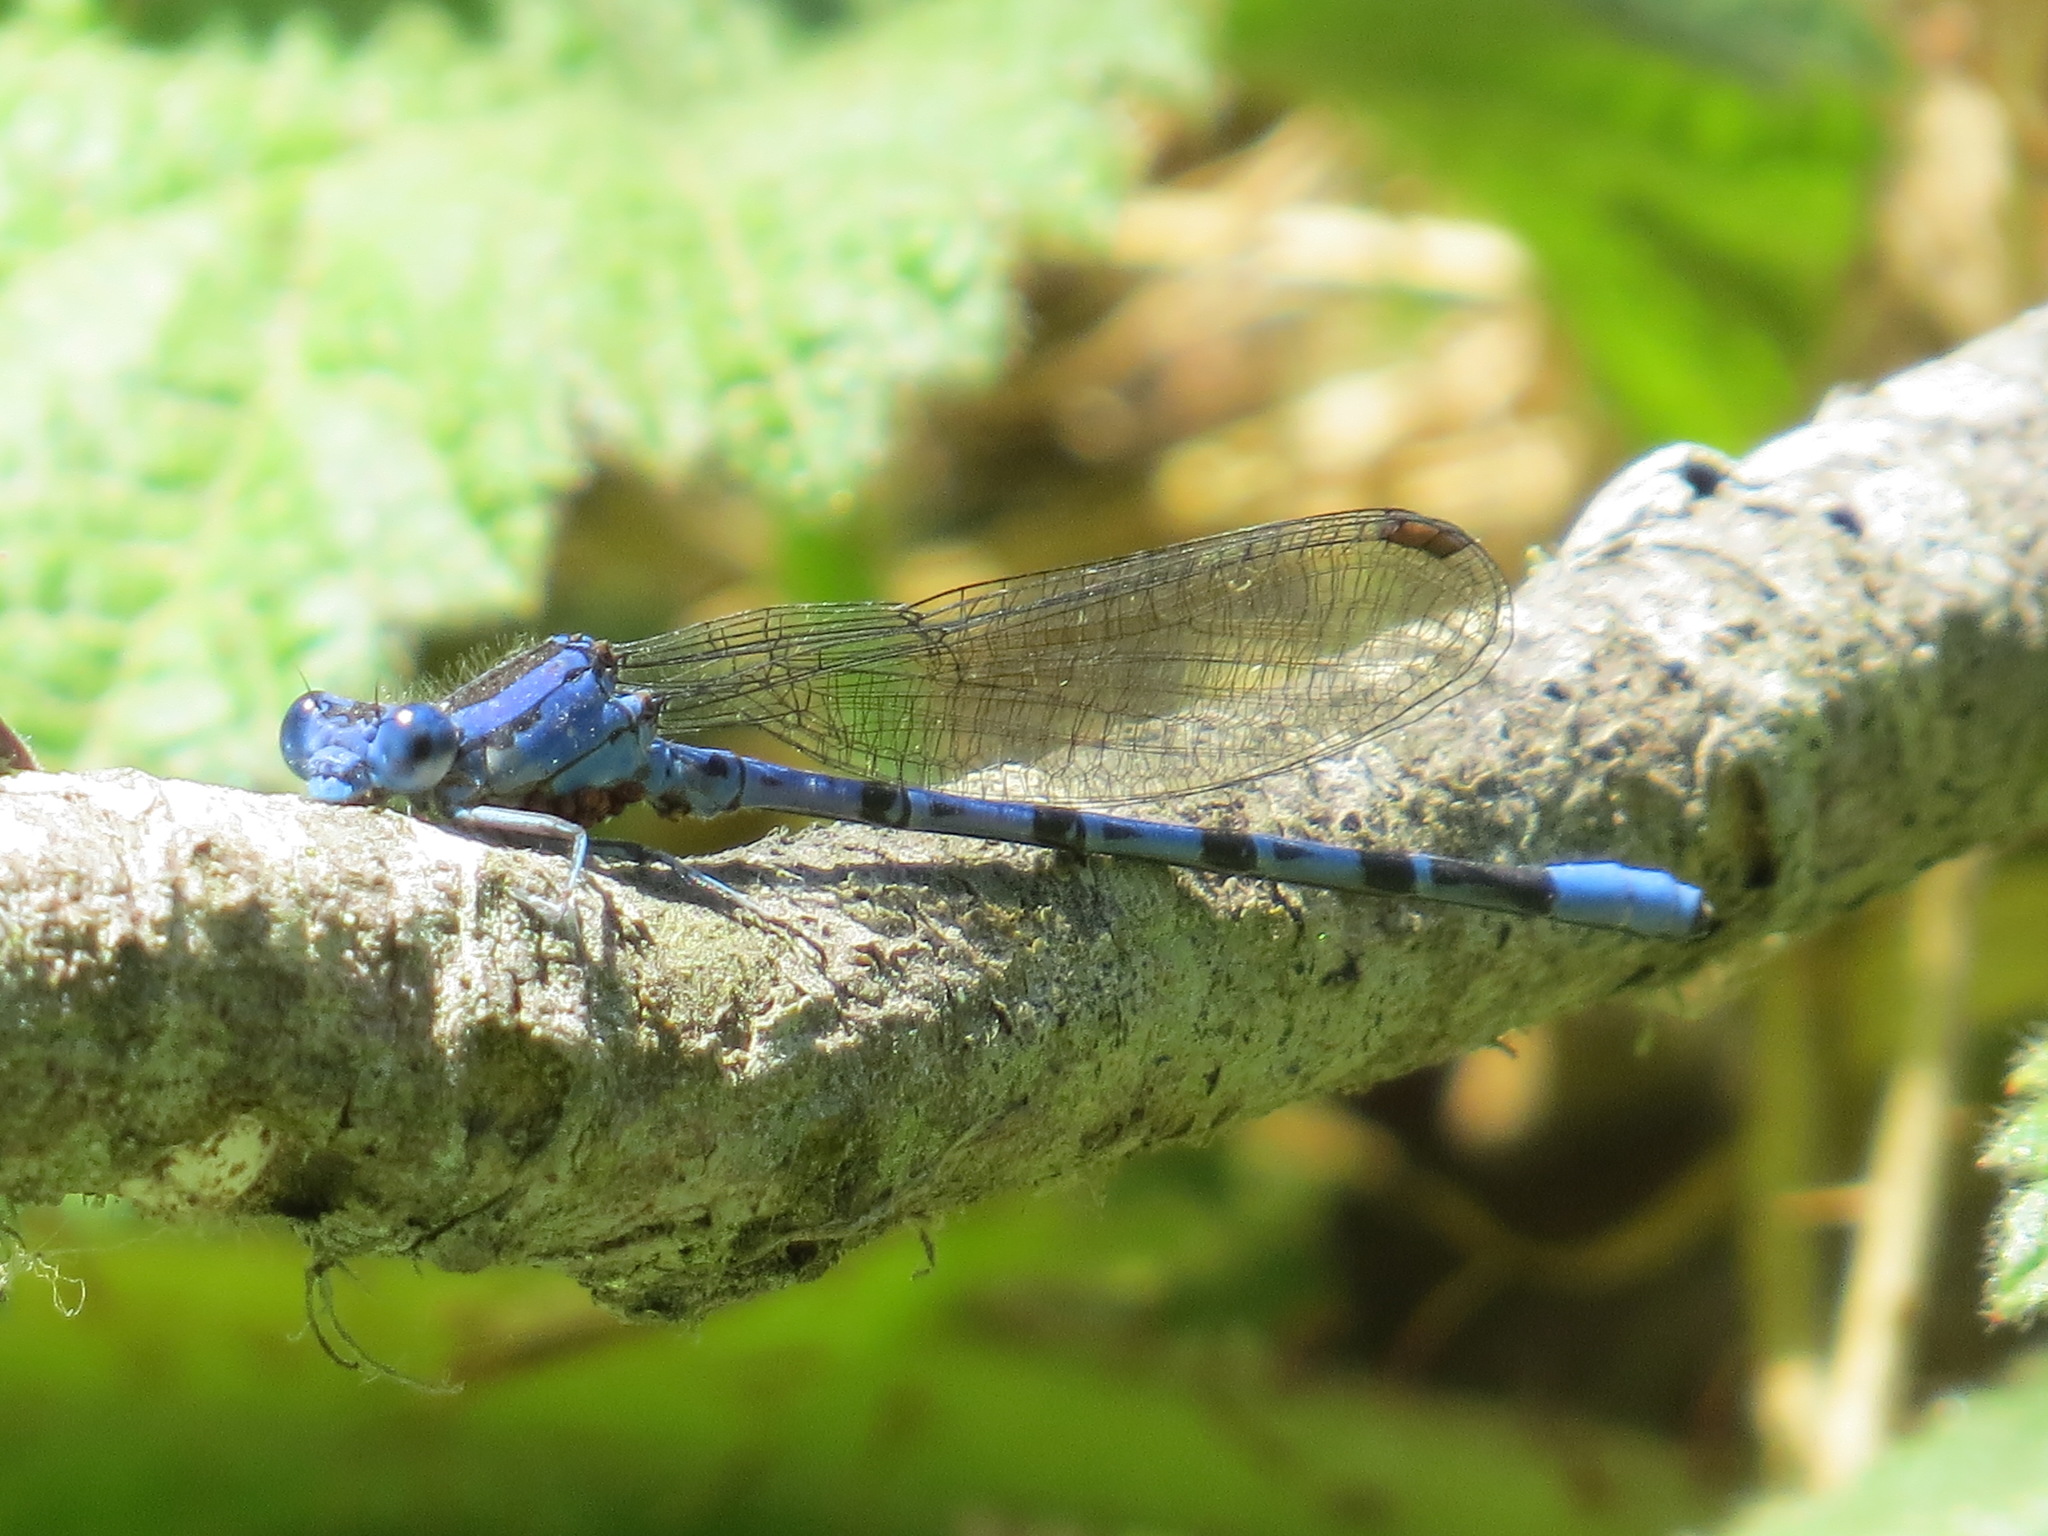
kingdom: Animalia
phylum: Arthropoda
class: Insecta
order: Odonata
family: Coenagrionidae
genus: Argia
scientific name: Argia vivida
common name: Vivid dancer
